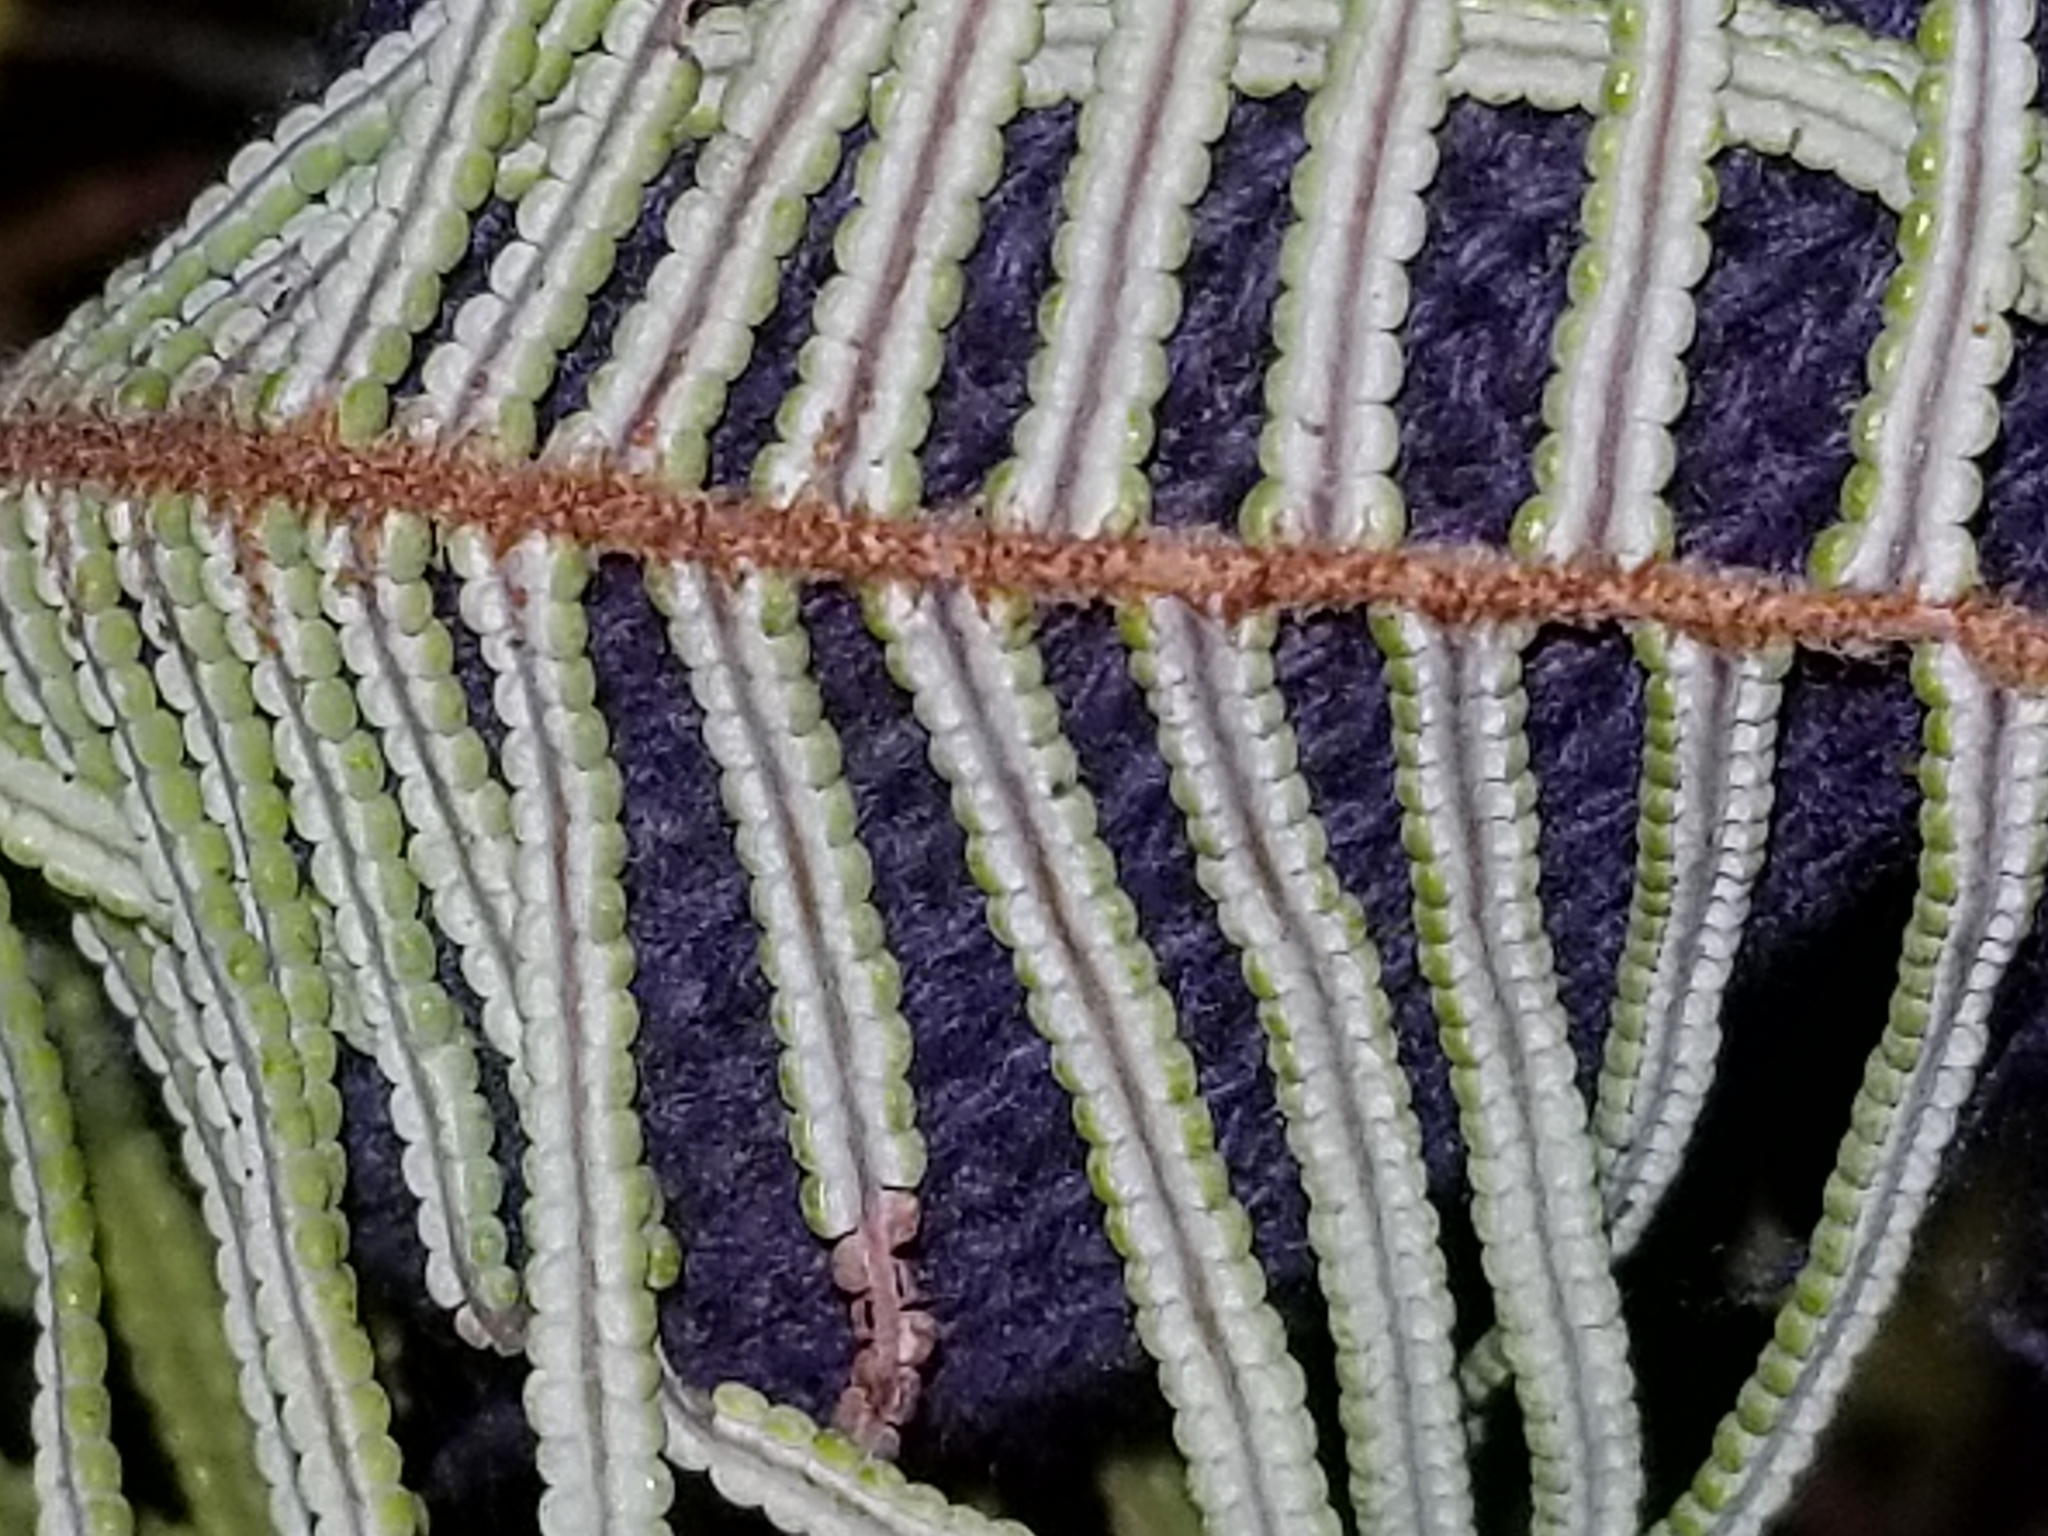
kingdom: Plantae
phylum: Tracheophyta
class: Polypodiopsida
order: Gleicheniales
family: Gleicheniaceae
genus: Gleichenia
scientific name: Gleichenia dicarpa
